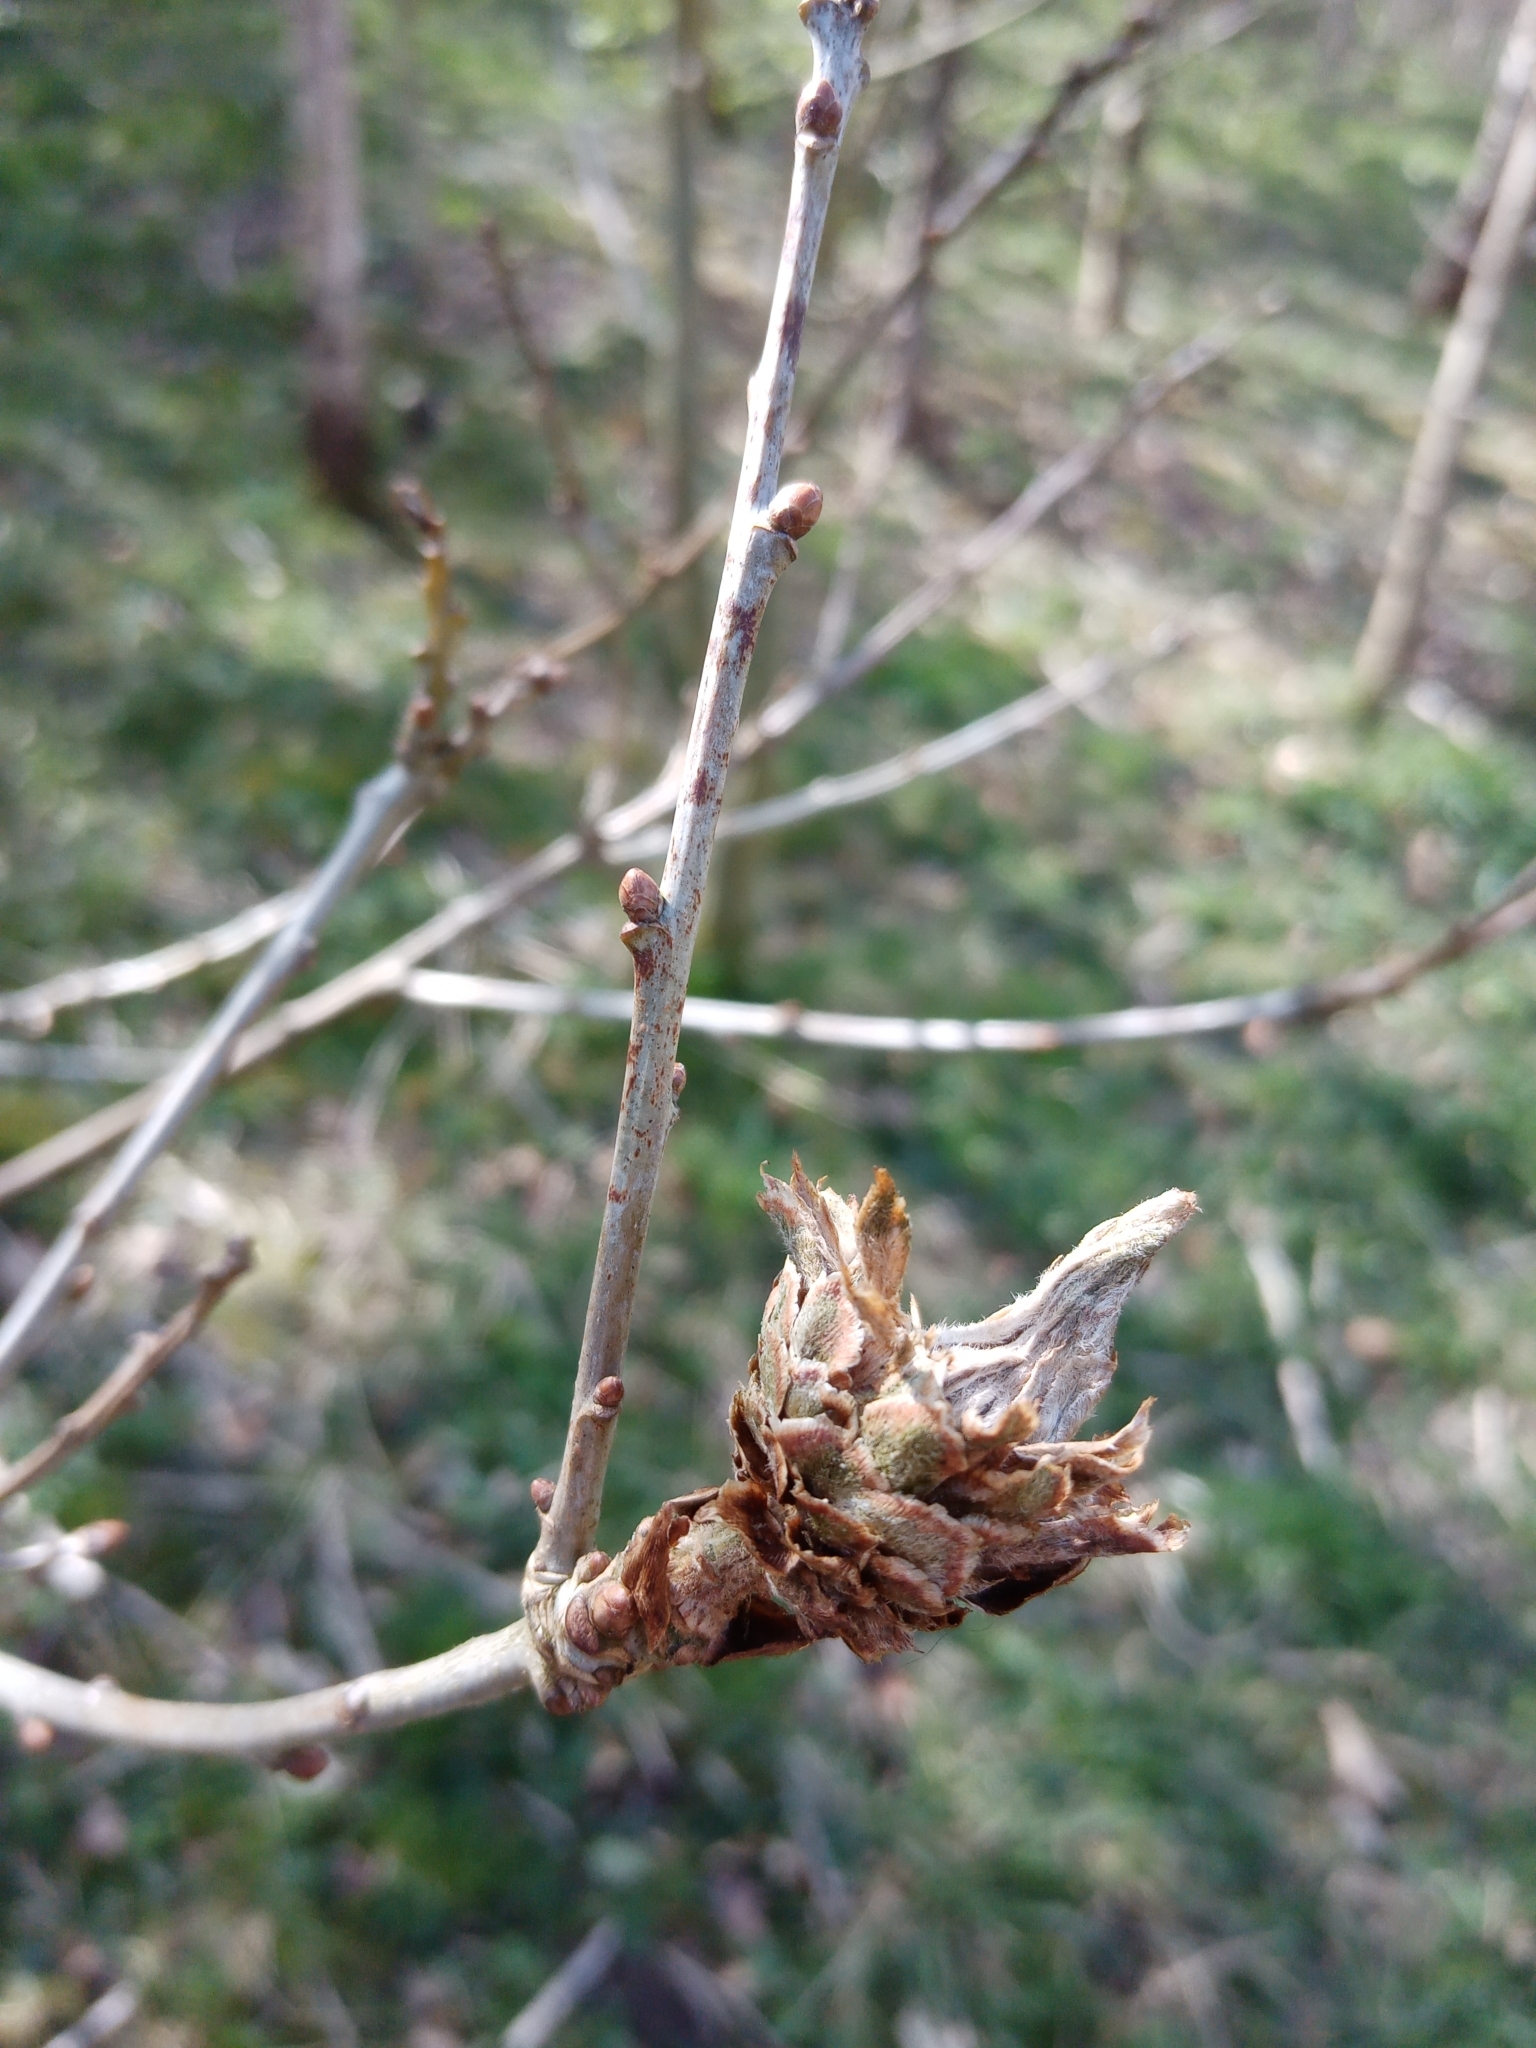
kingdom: Animalia
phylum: Arthropoda
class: Insecta
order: Hymenoptera
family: Cynipidae
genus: Andricus
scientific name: Andricus foecundatrix
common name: Artichoke gall
